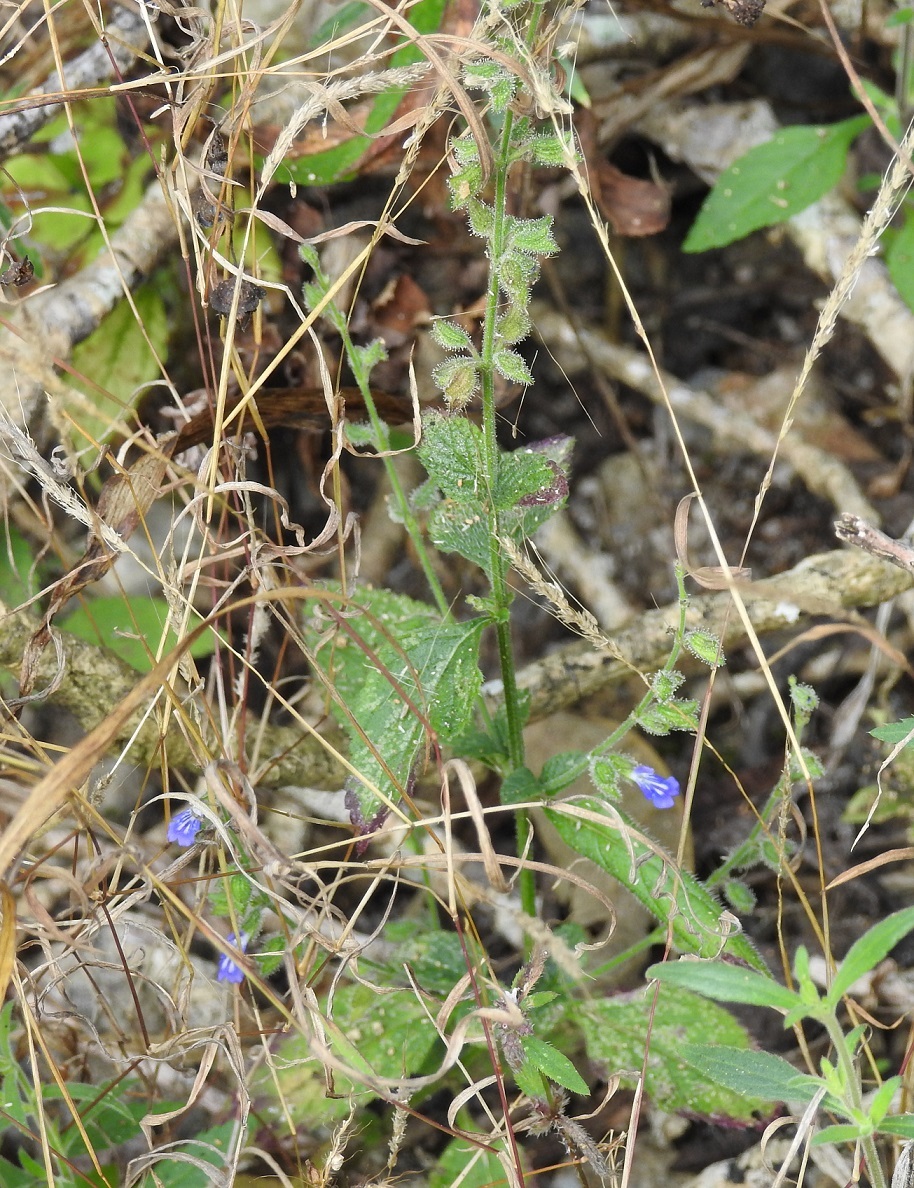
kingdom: Plantae
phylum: Tracheophyta
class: Magnoliopsida
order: Lamiales
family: Lamiaceae
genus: Salvia
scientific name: Salvia misella
